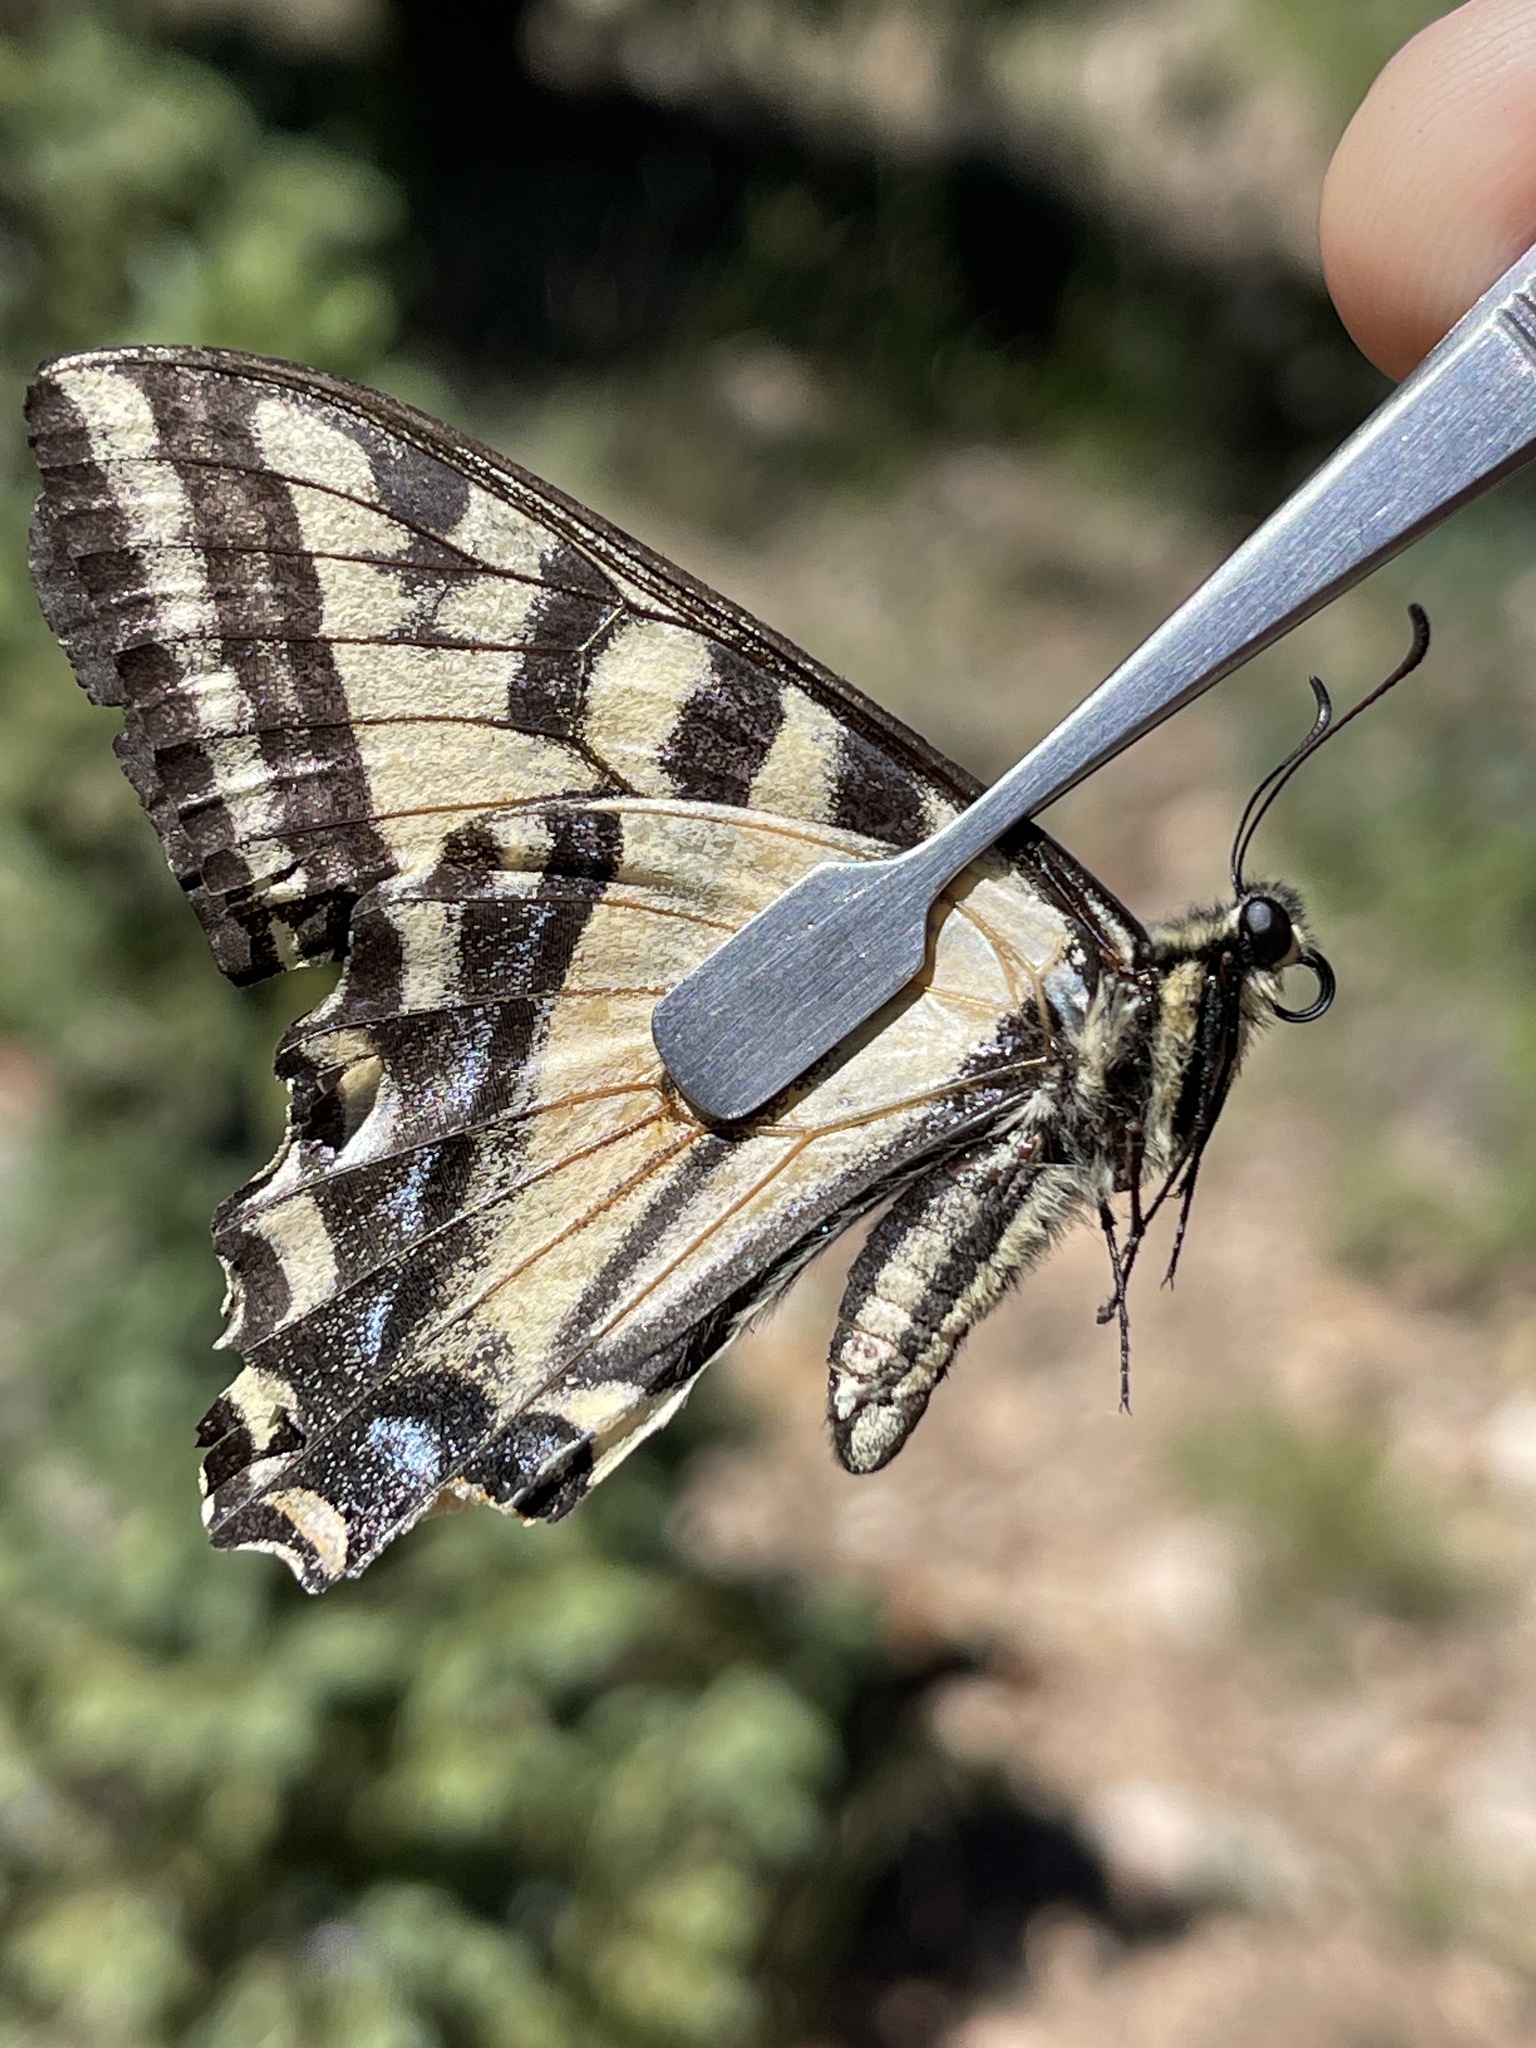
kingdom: Animalia
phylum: Arthropoda
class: Insecta
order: Lepidoptera
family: Papilionidae
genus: Papilio
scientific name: Papilio rutulus
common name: Western tiger swallowtail
